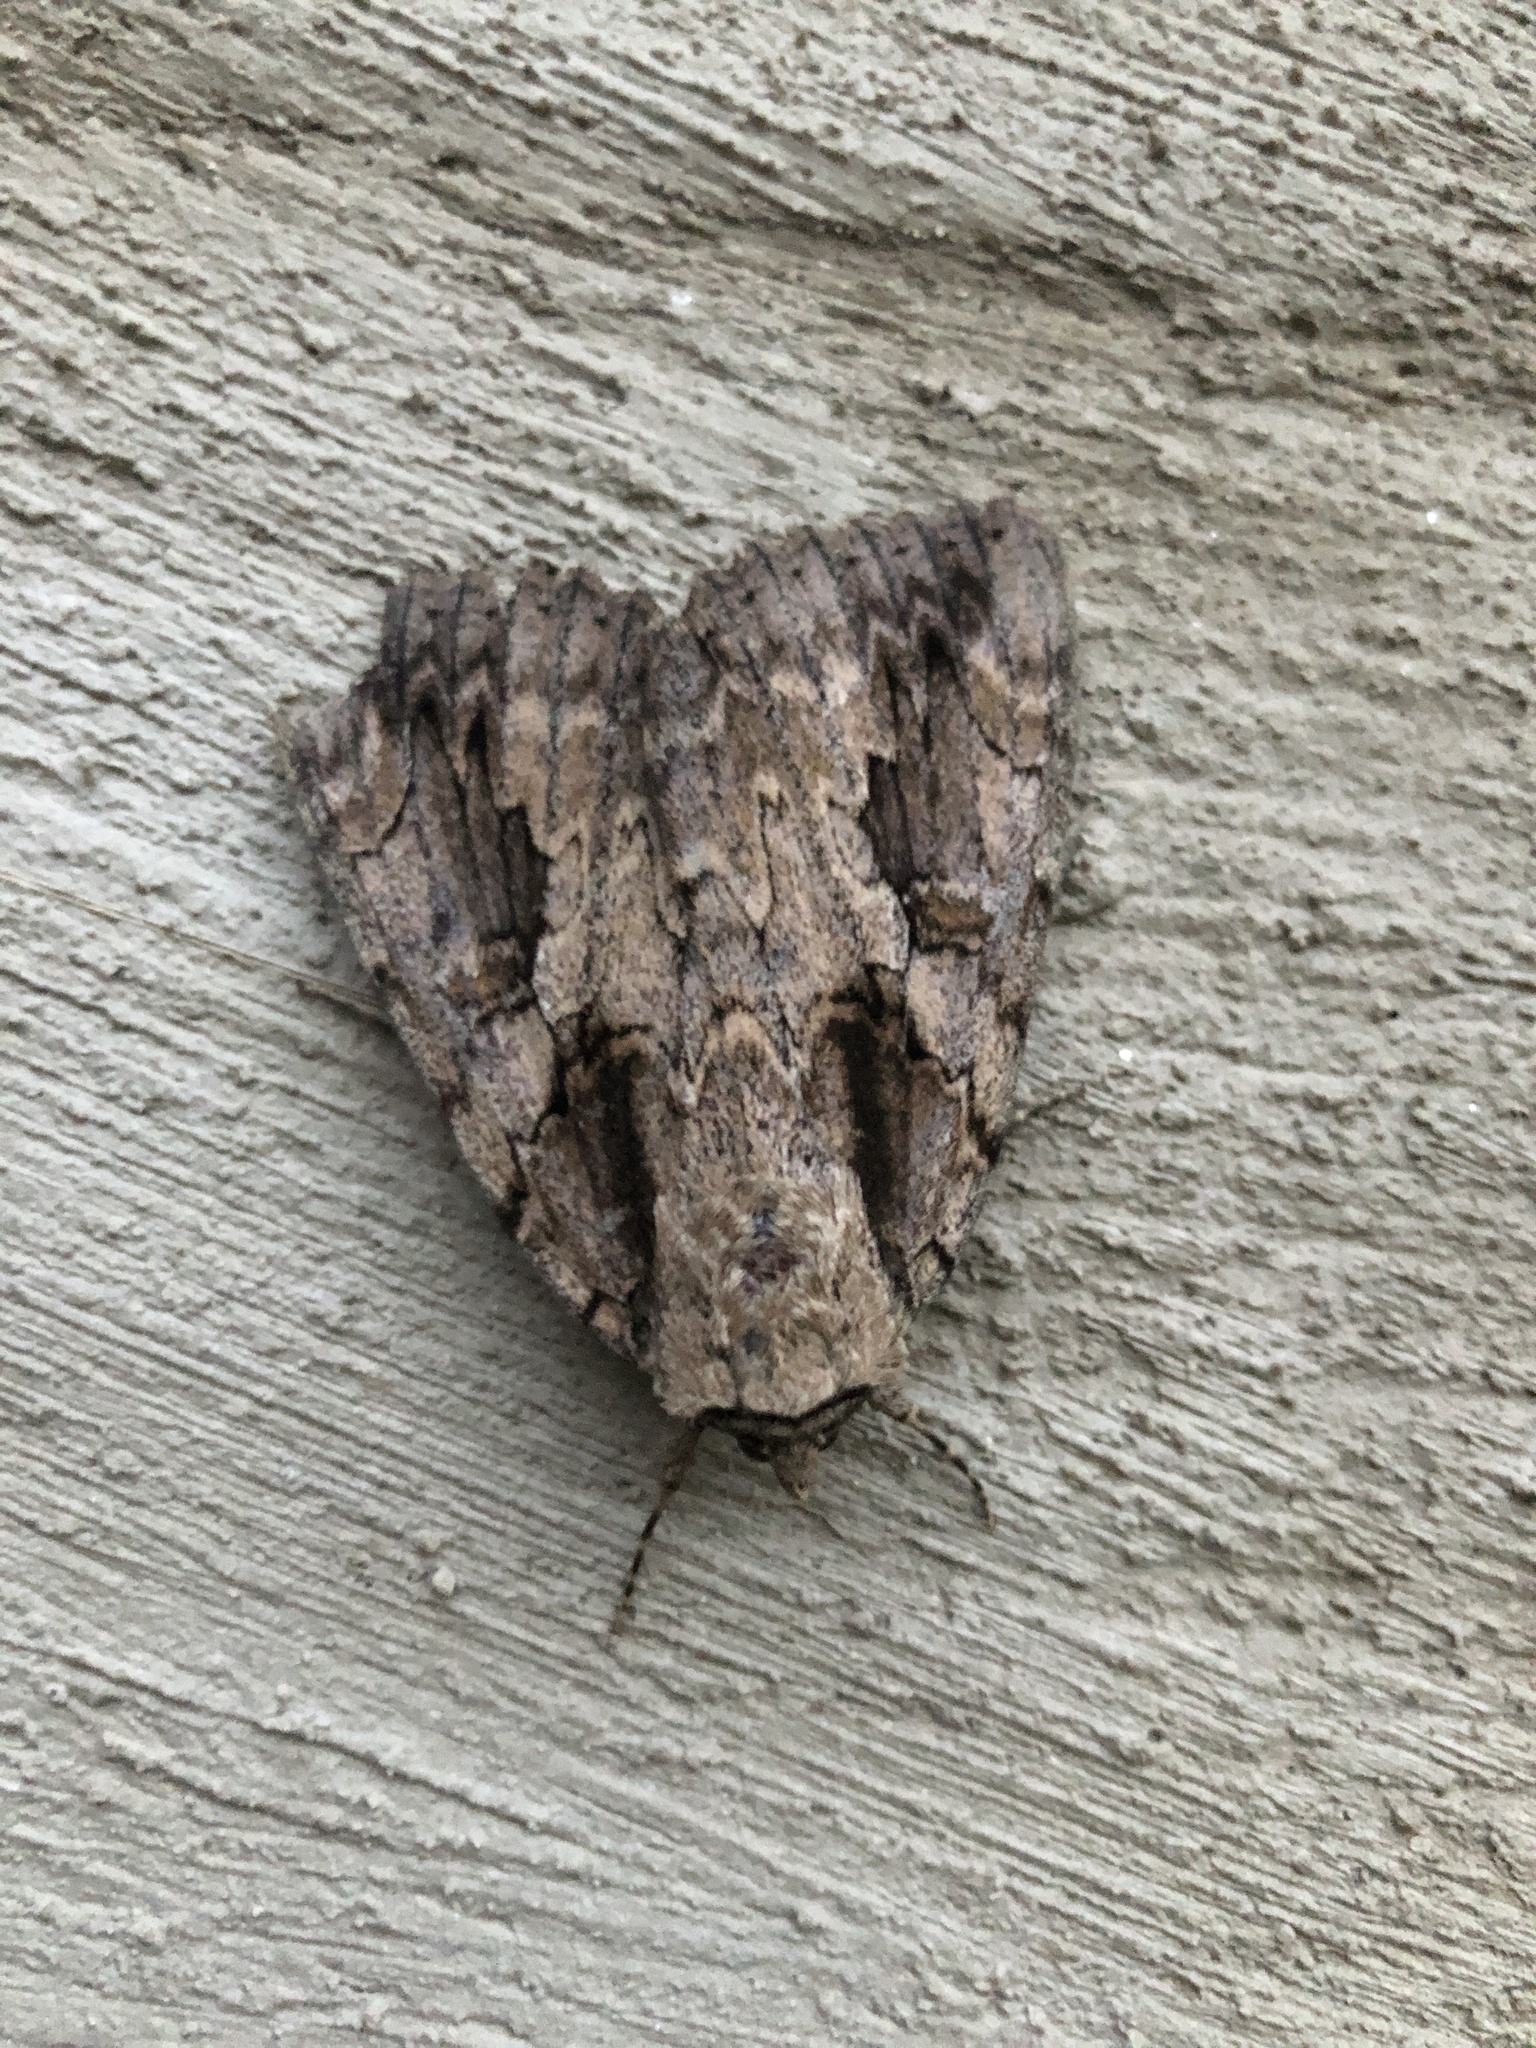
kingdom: Animalia
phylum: Arthropoda
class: Insecta
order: Lepidoptera
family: Erebidae
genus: Catocala
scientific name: Catocala amatrix
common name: Sweetheart underwing
